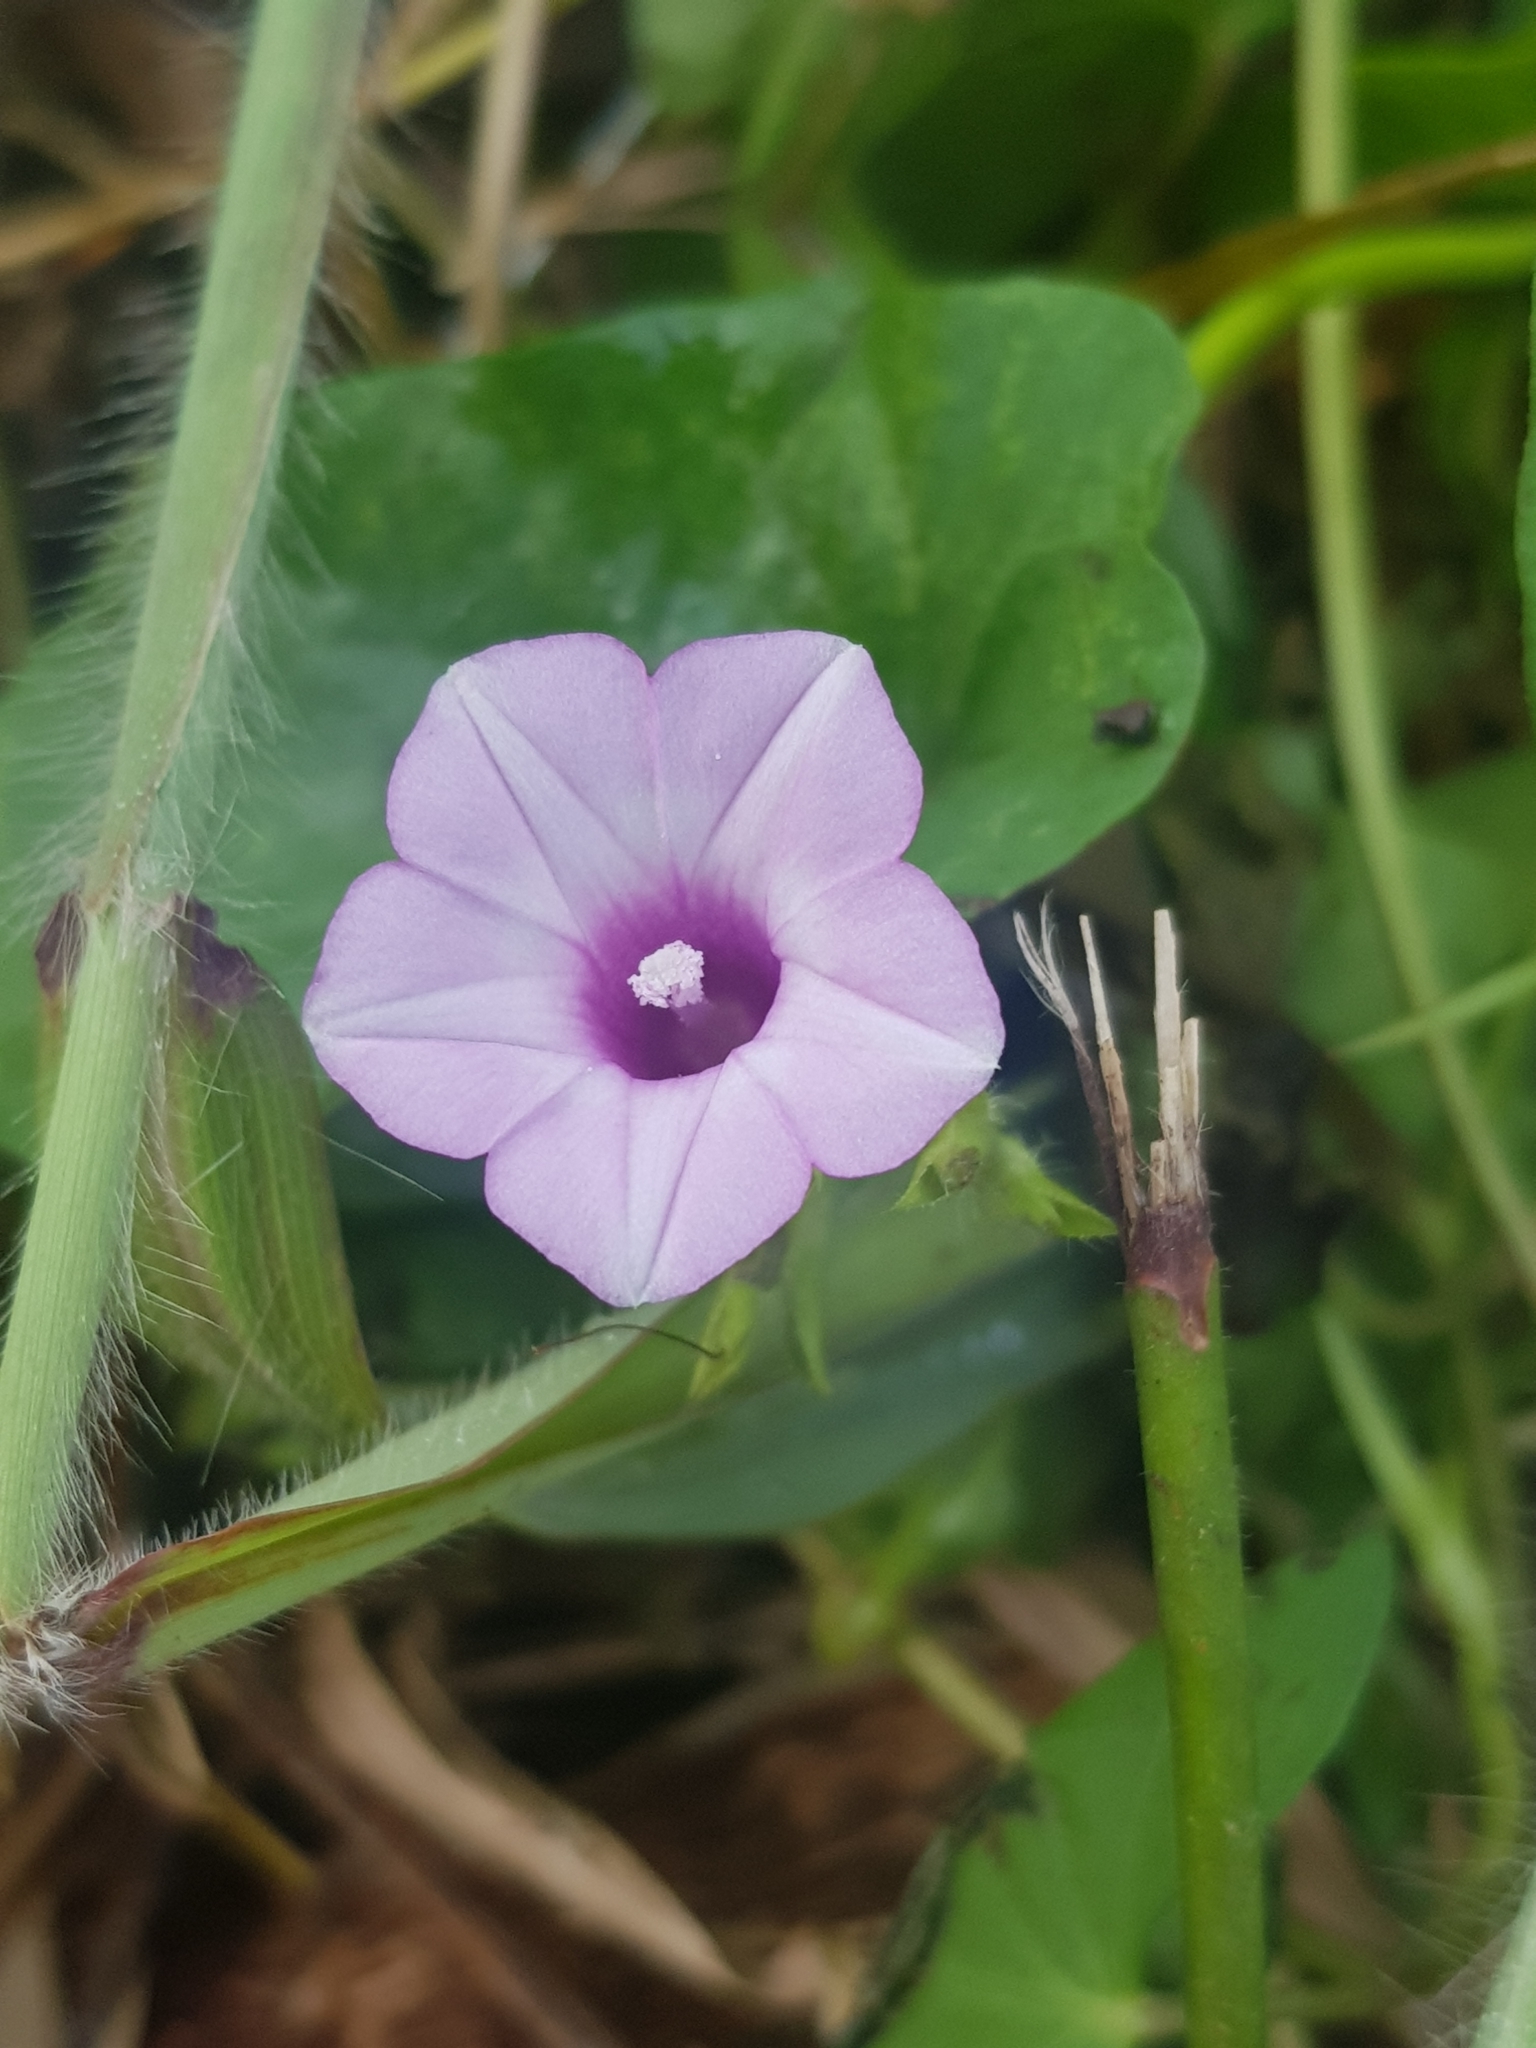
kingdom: Plantae
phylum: Tracheophyta
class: Magnoliopsida
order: Solanales
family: Convolvulaceae
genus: Ipomoea
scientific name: Ipomoea triloba
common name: Little-bell
